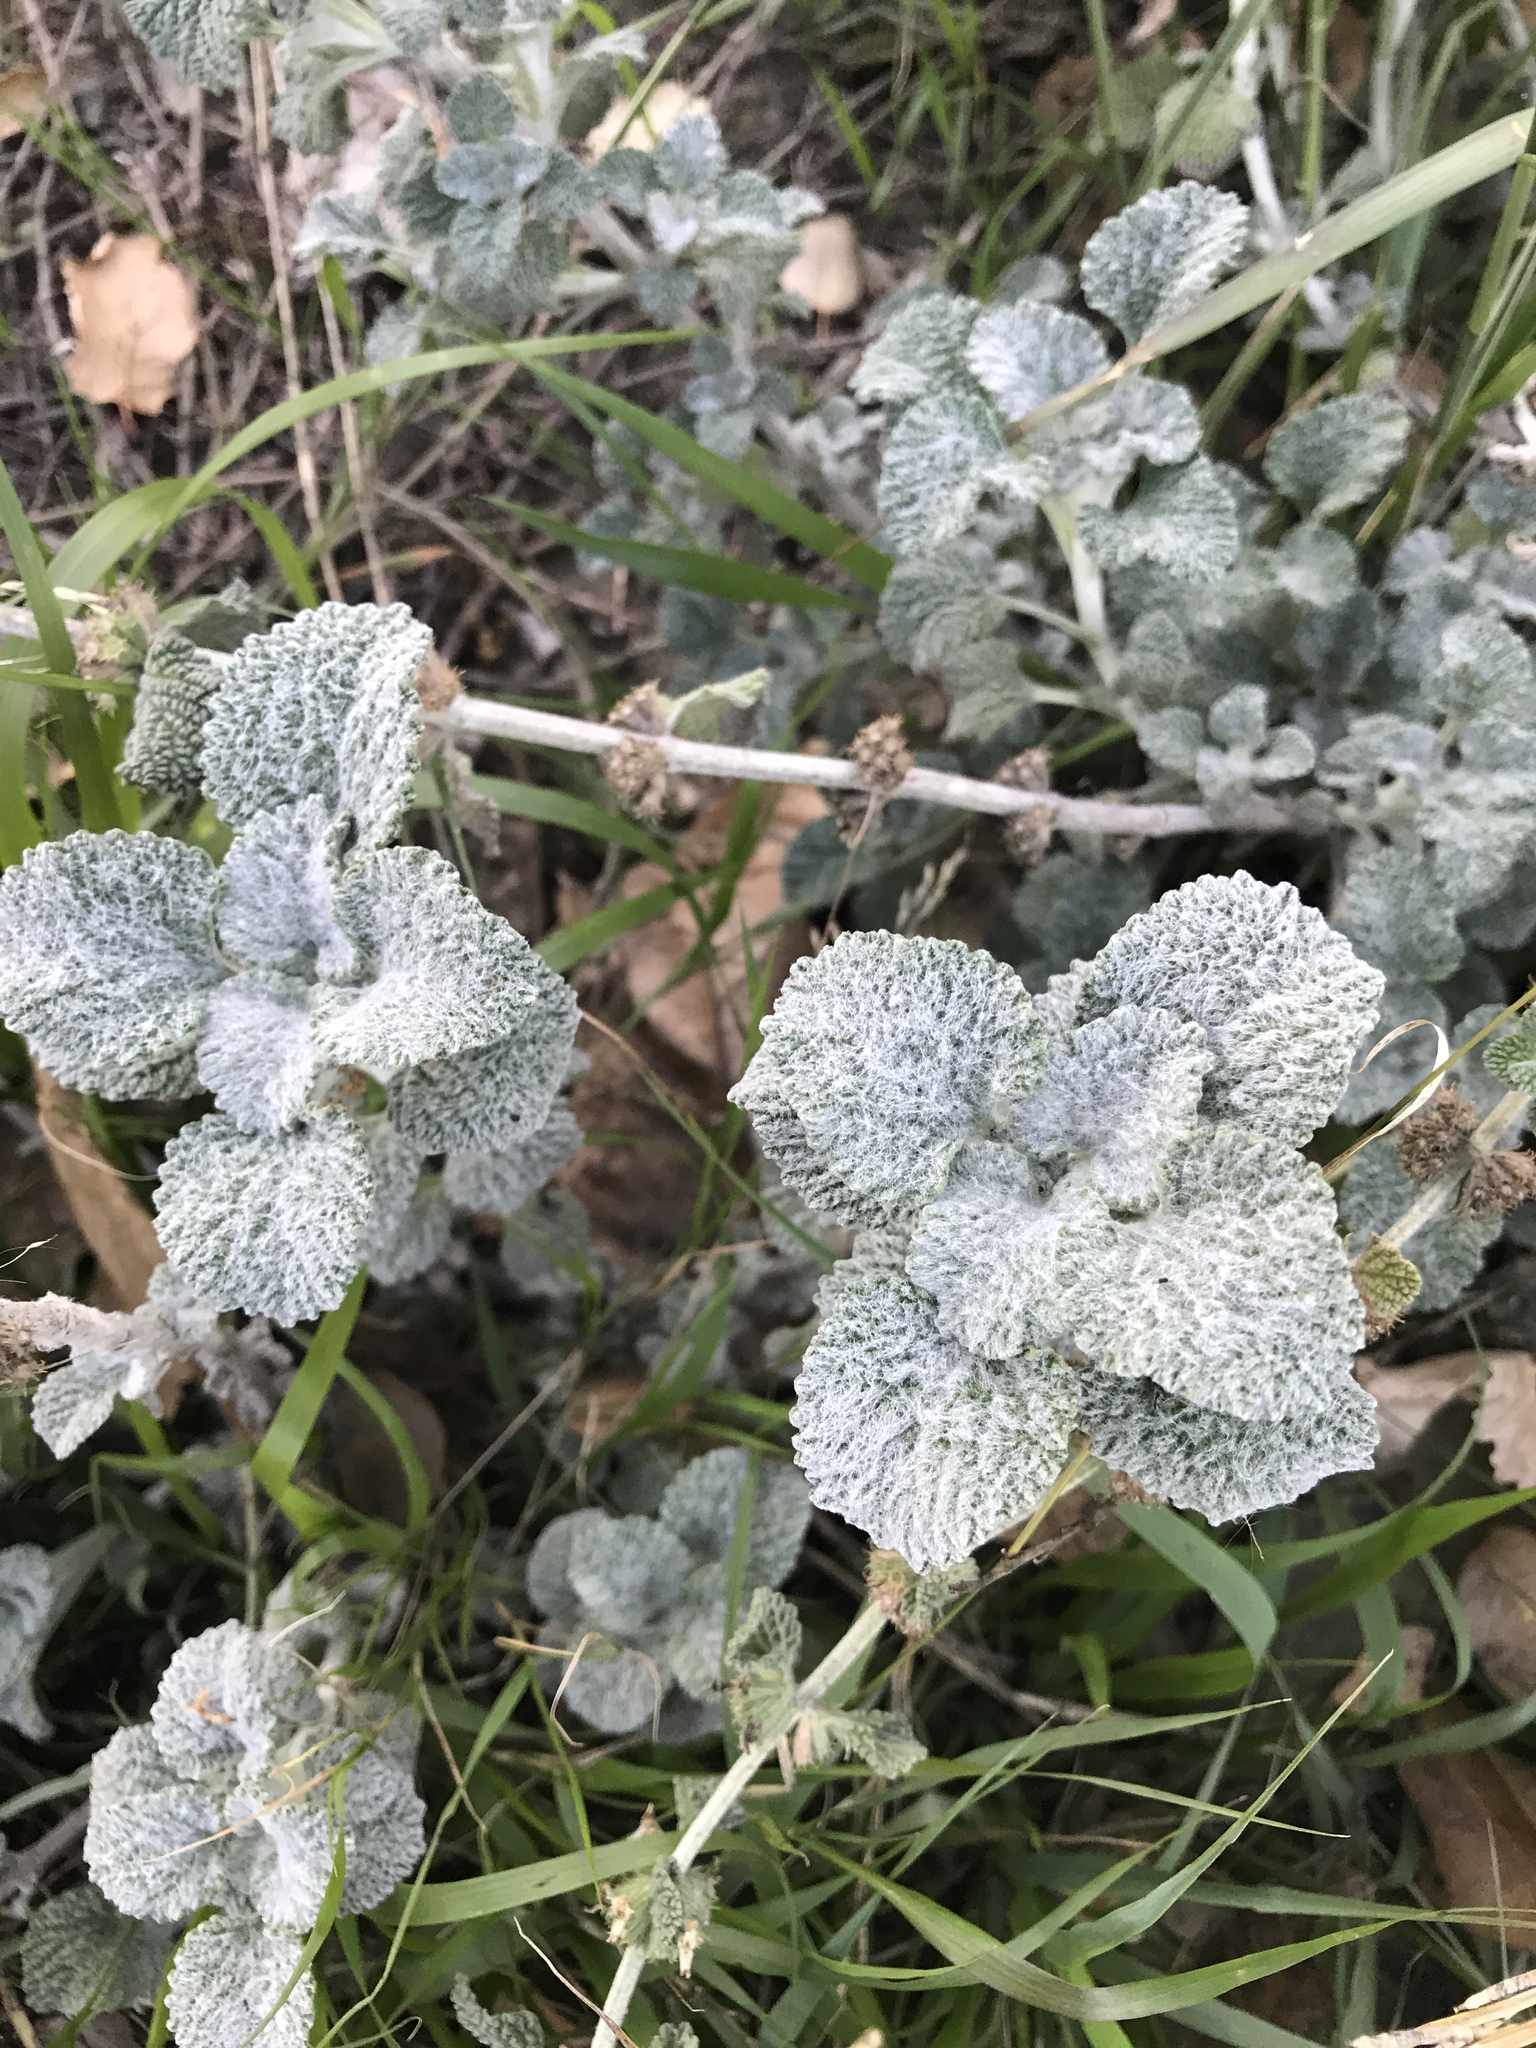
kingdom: Plantae
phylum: Tracheophyta
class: Magnoliopsida
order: Lamiales
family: Lamiaceae
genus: Marrubium
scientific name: Marrubium vulgare
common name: Horehound
